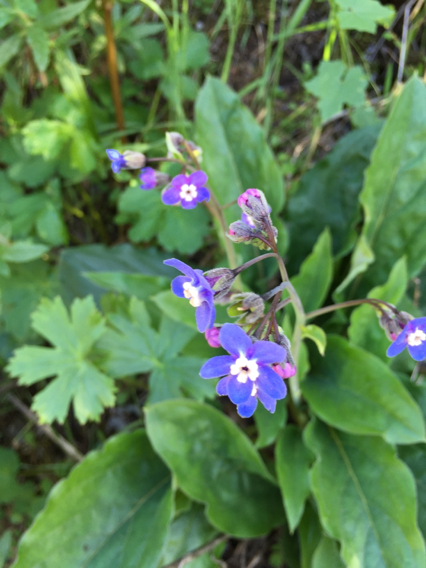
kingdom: Plantae
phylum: Tracheophyta
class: Magnoliopsida
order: Boraginales
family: Boraginaceae
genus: Adelinia
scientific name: Adelinia grande
